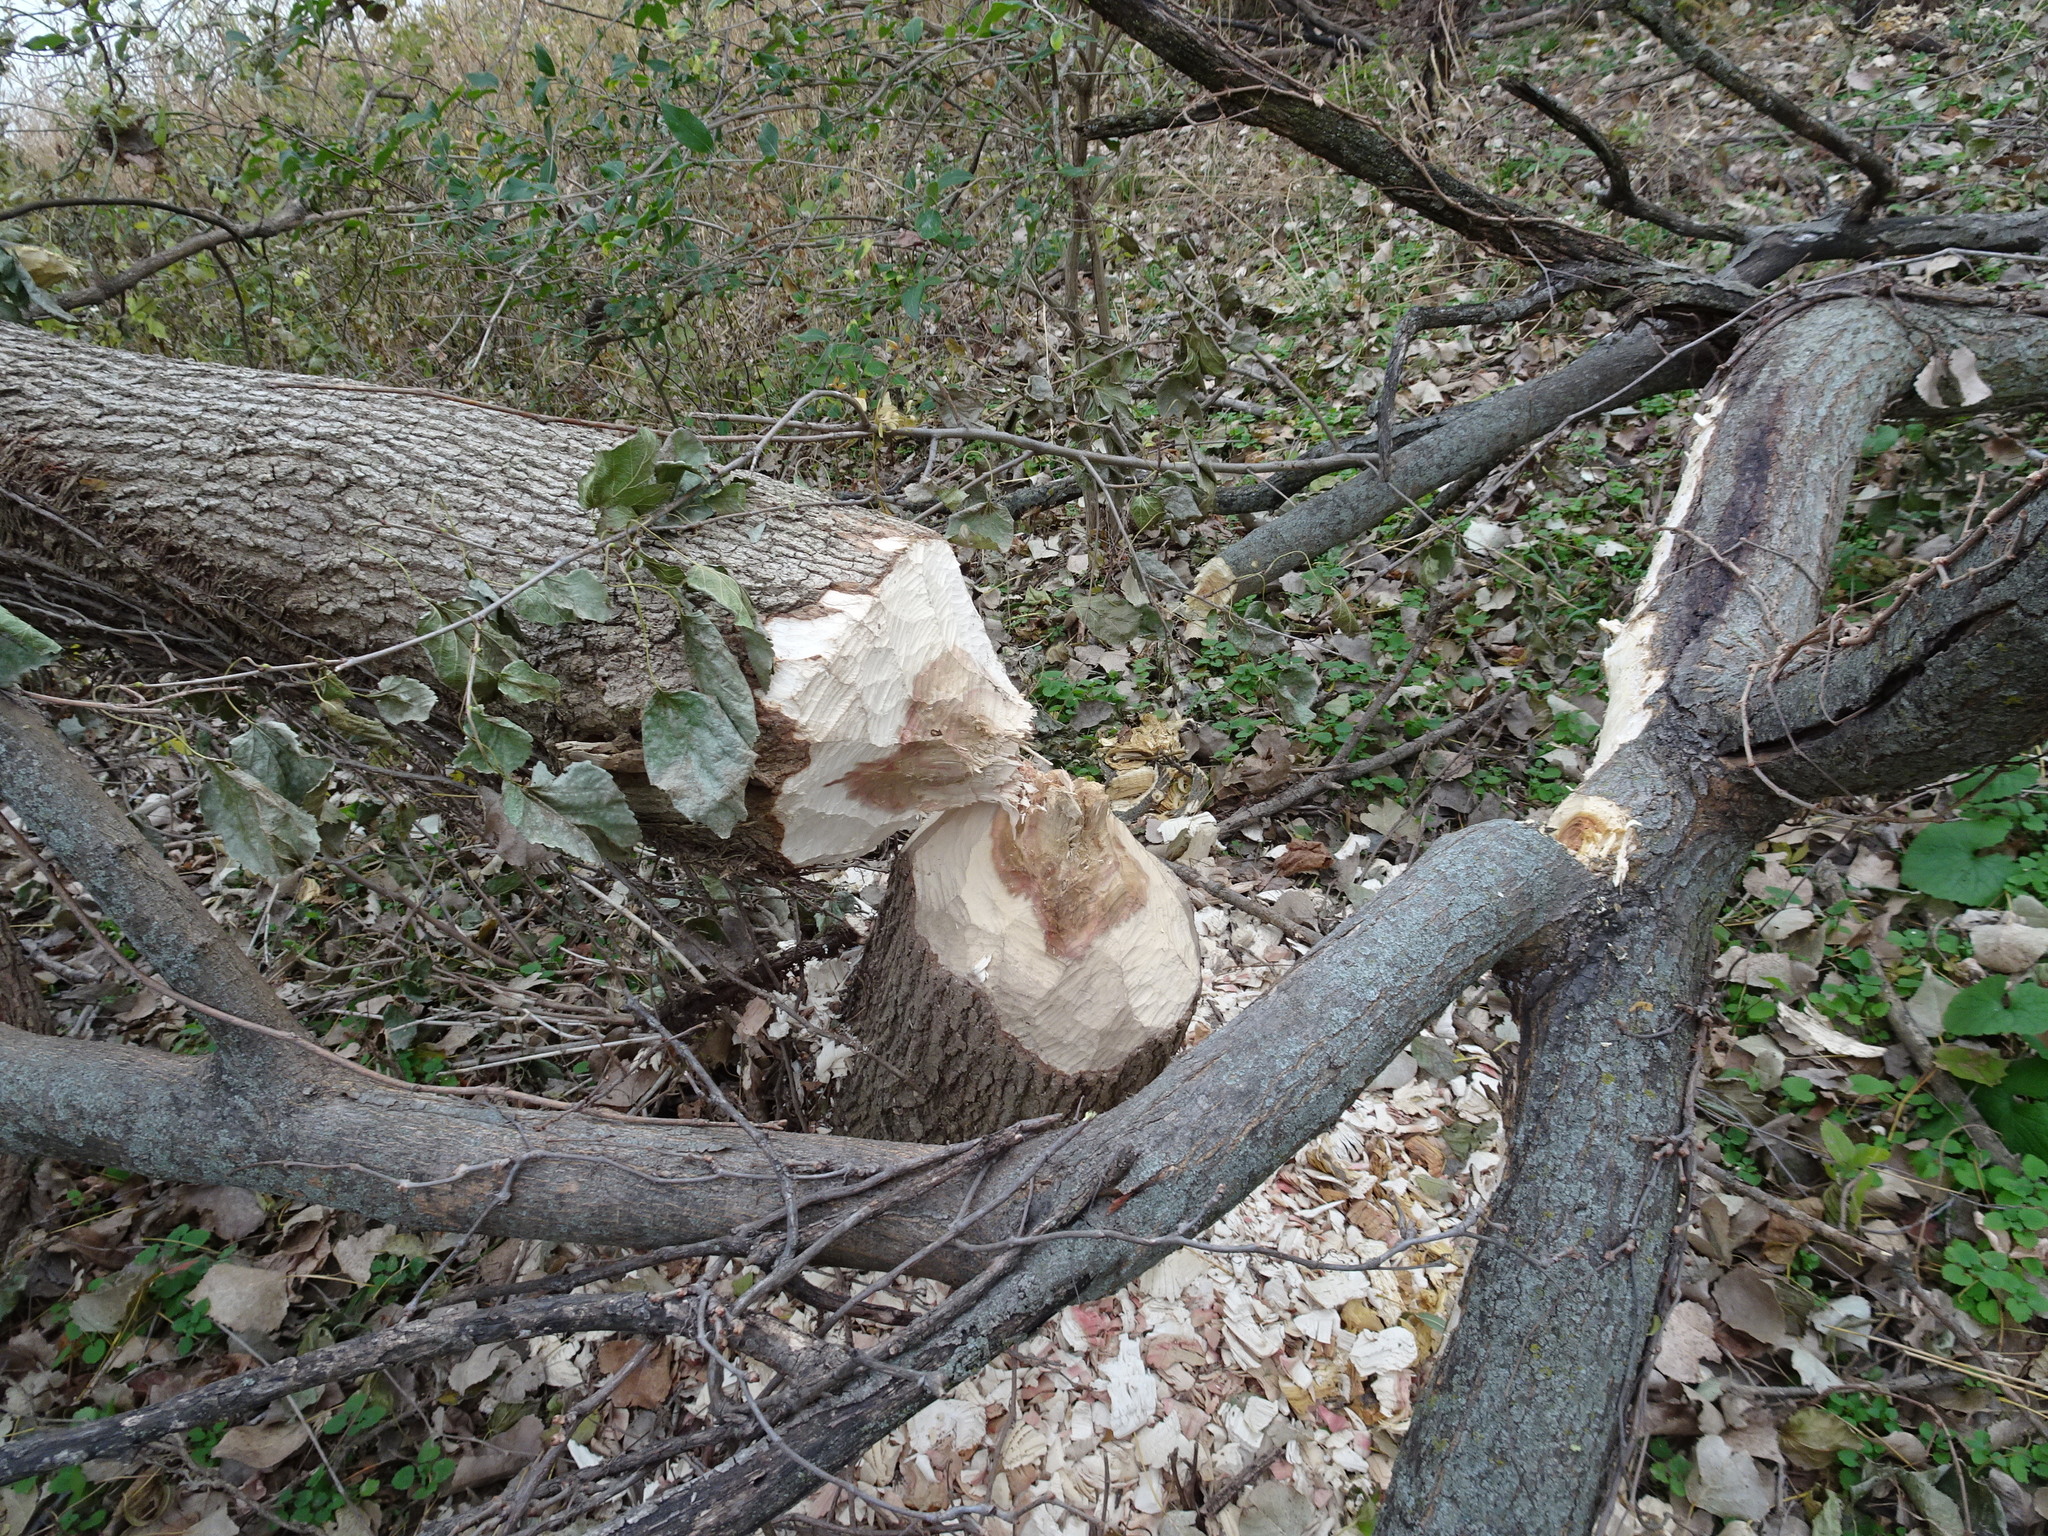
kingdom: Animalia
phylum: Chordata
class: Mammalia
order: Rodentia
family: Castoridae
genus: Castor
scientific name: Castor canadensis
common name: American beaver
